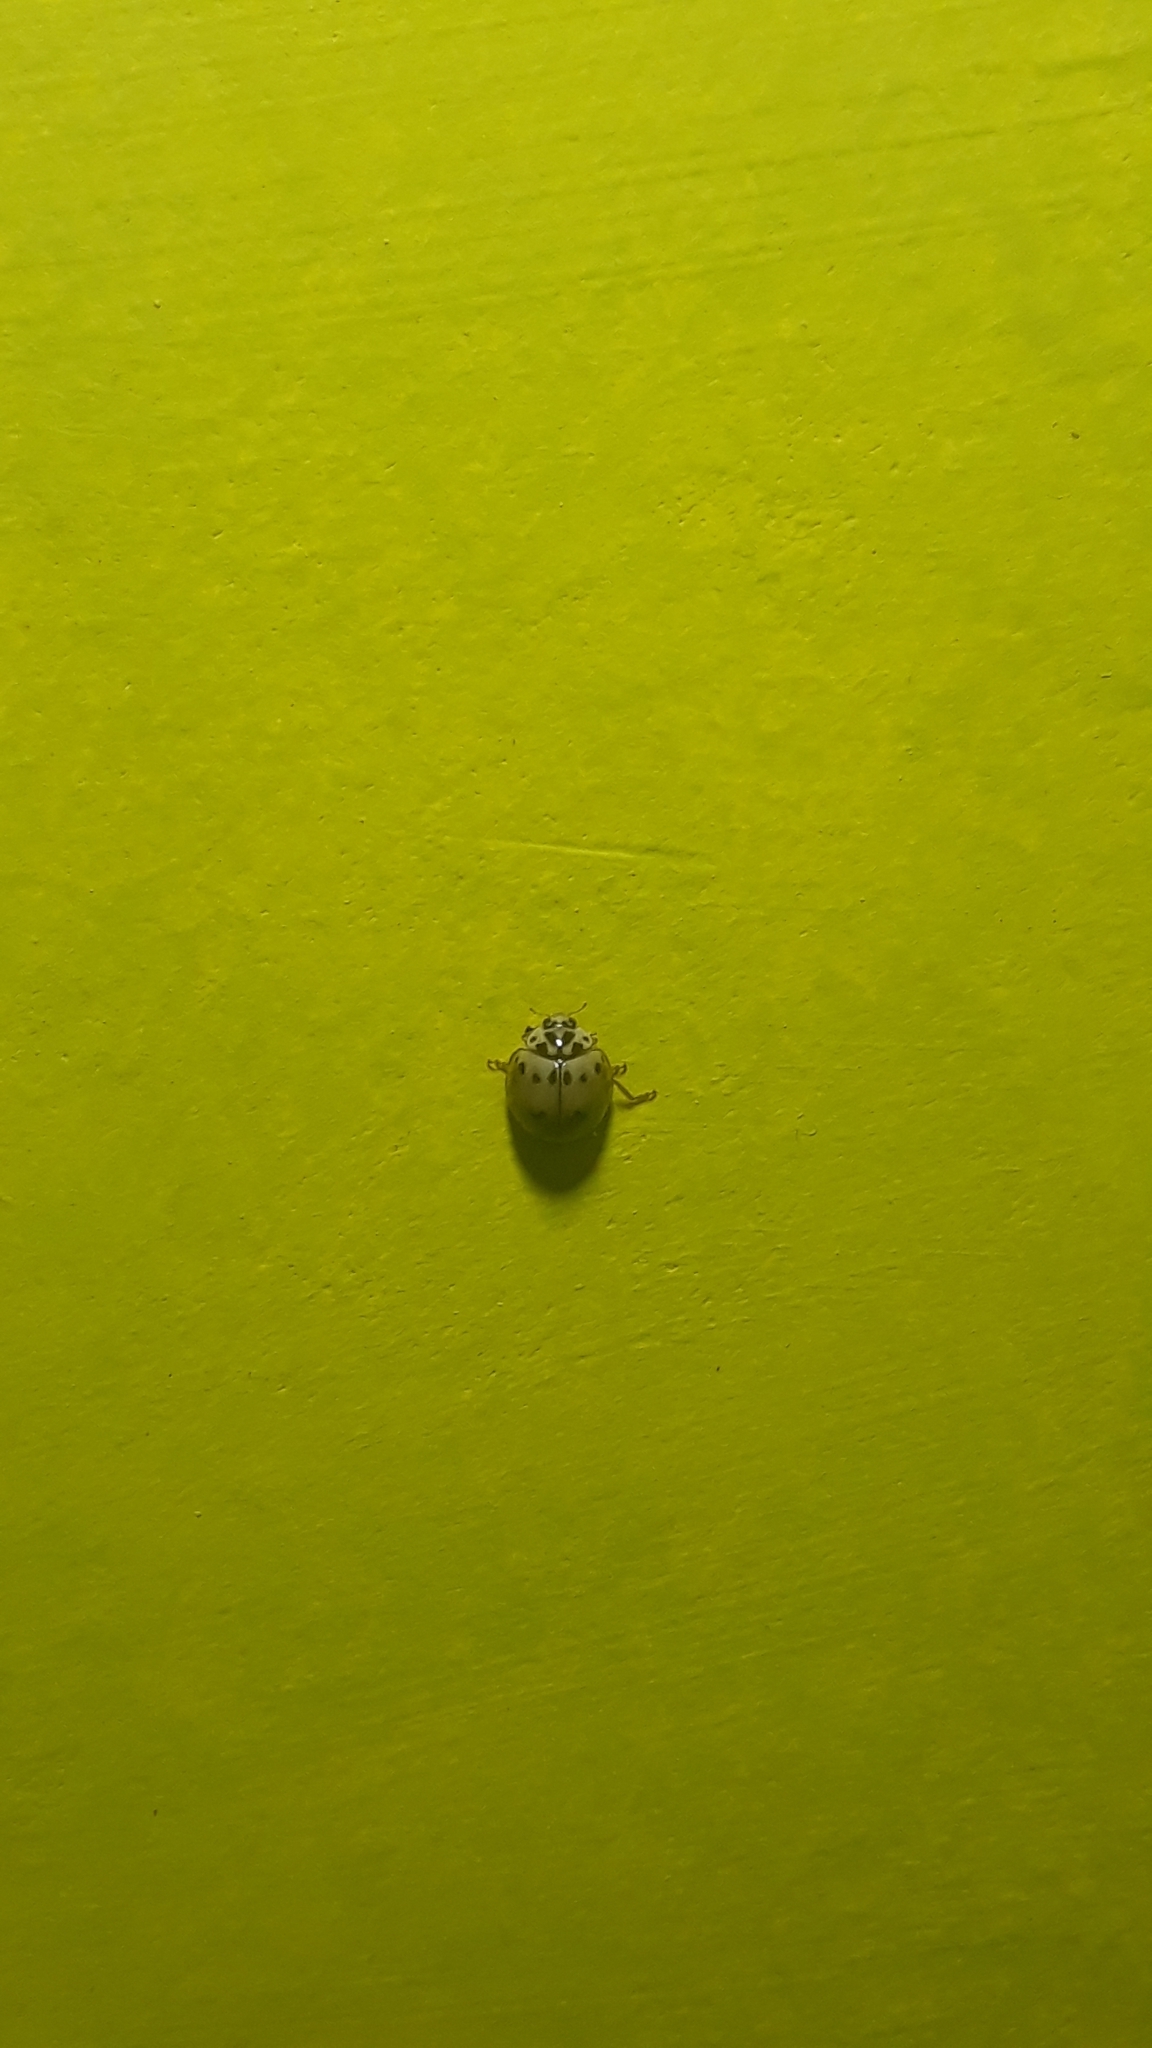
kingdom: Animalia
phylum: Arthropoda
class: Insecta
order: Coleoptera
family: Coccinellidae
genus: Olla
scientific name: Olla v-nigrum
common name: Ashy gray lady beetle
